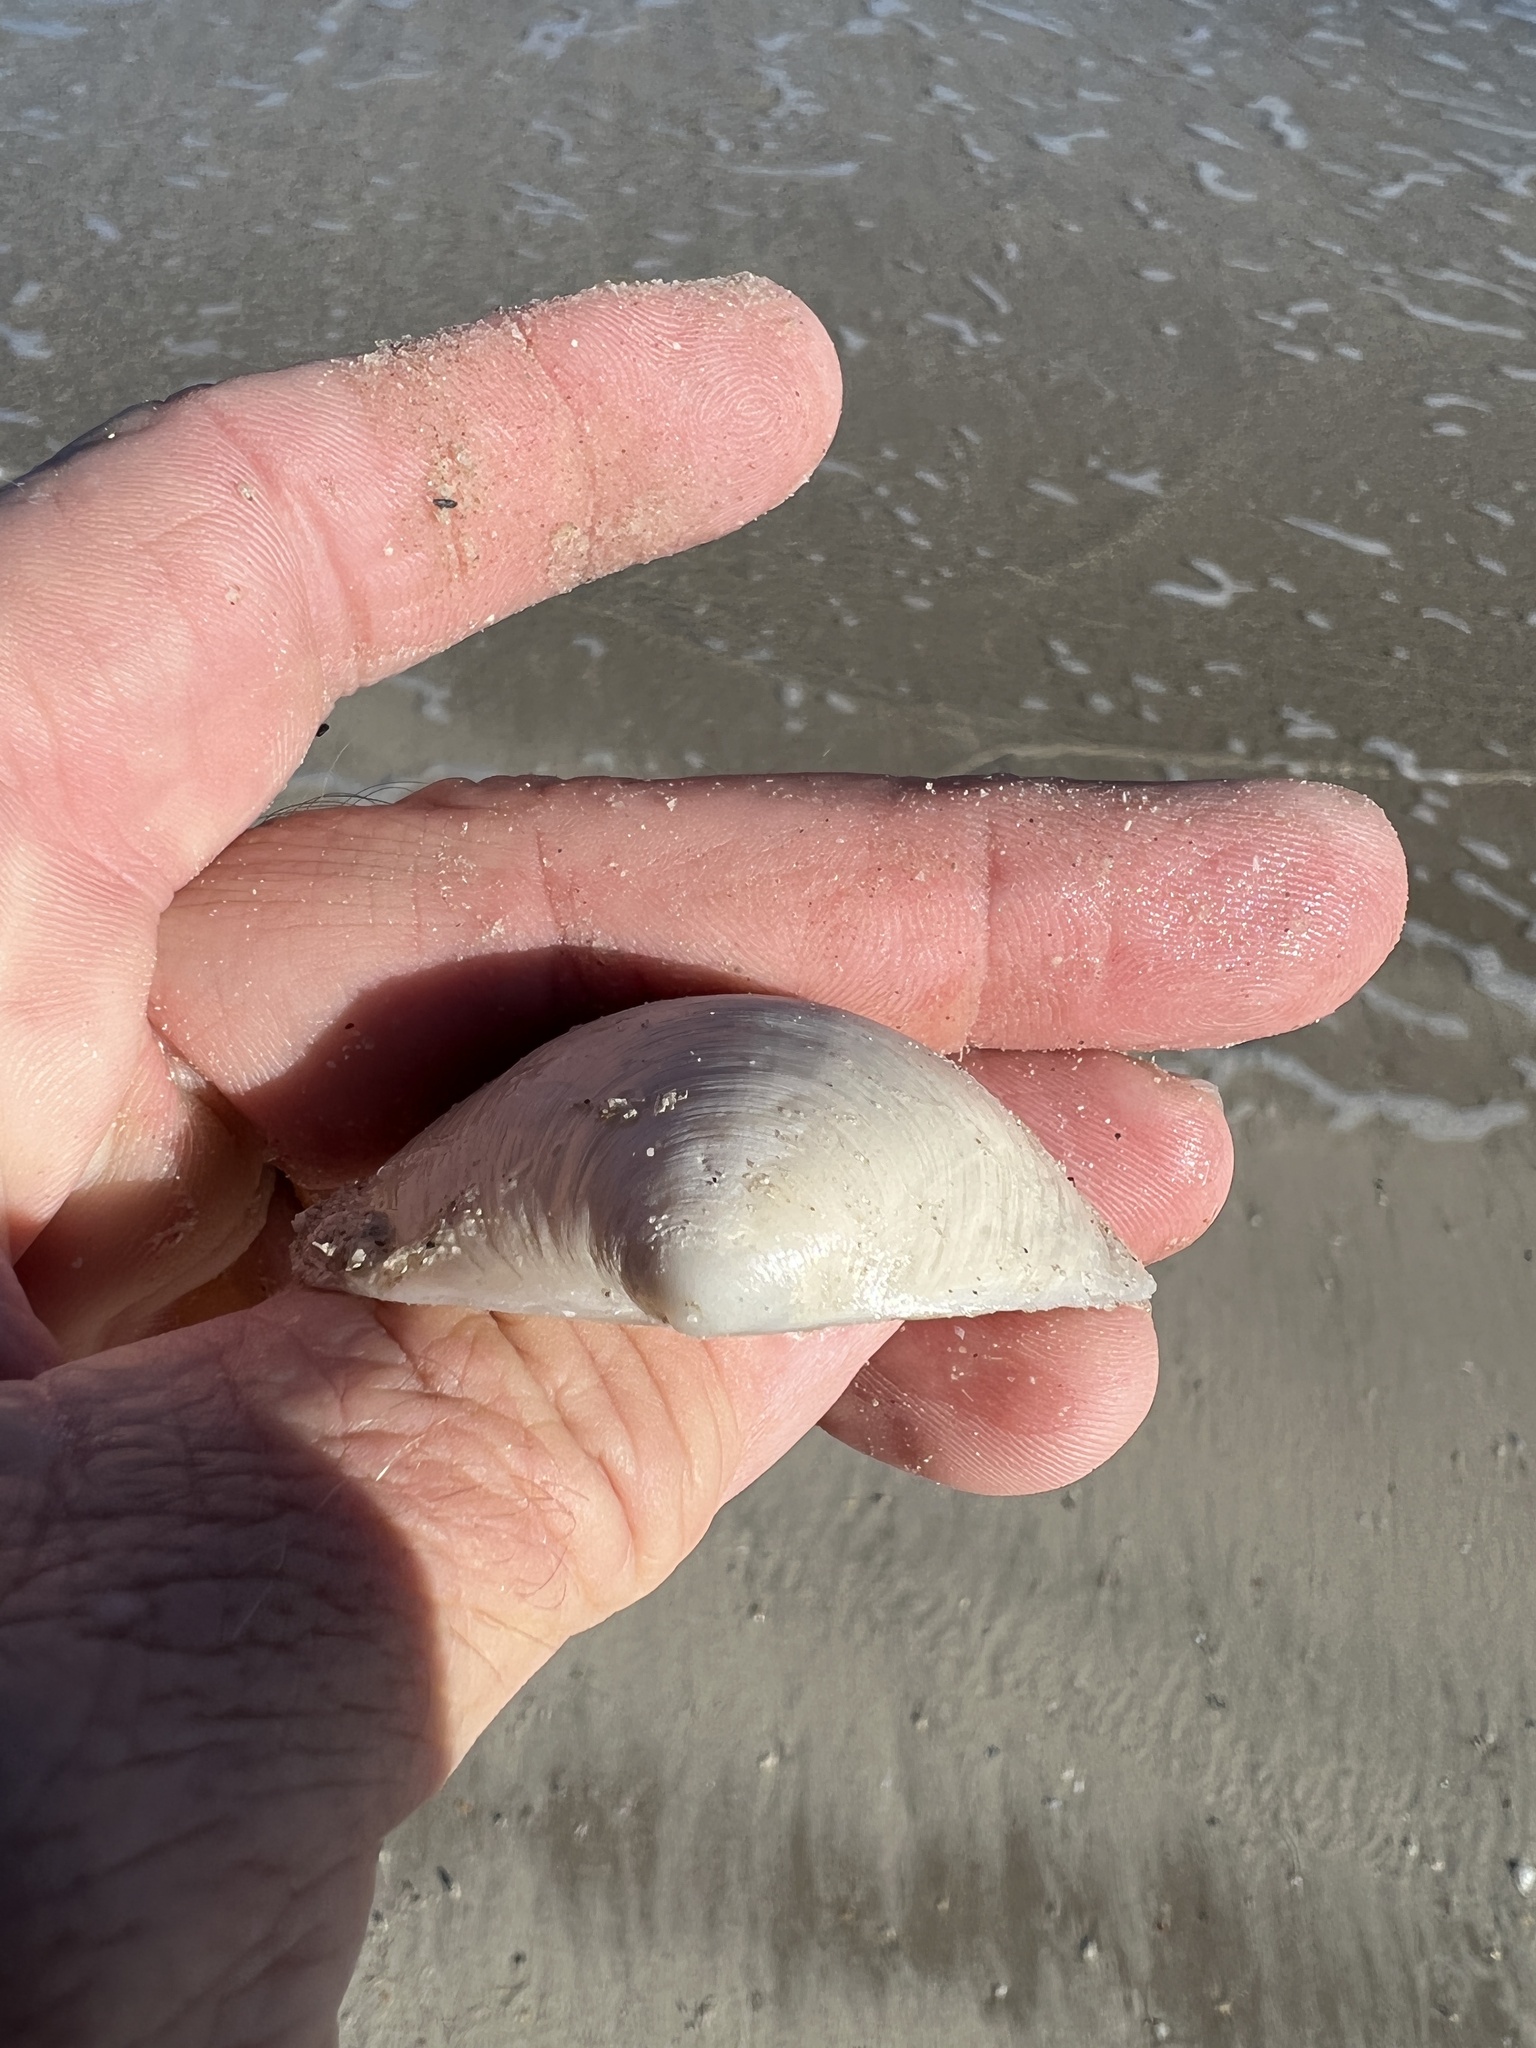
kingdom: Animalia
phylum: Mollusca
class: Bivalvia
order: Lucinida
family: Lucinidae
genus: Anodontia
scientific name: Anodontia alba
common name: Buttercup lucine
